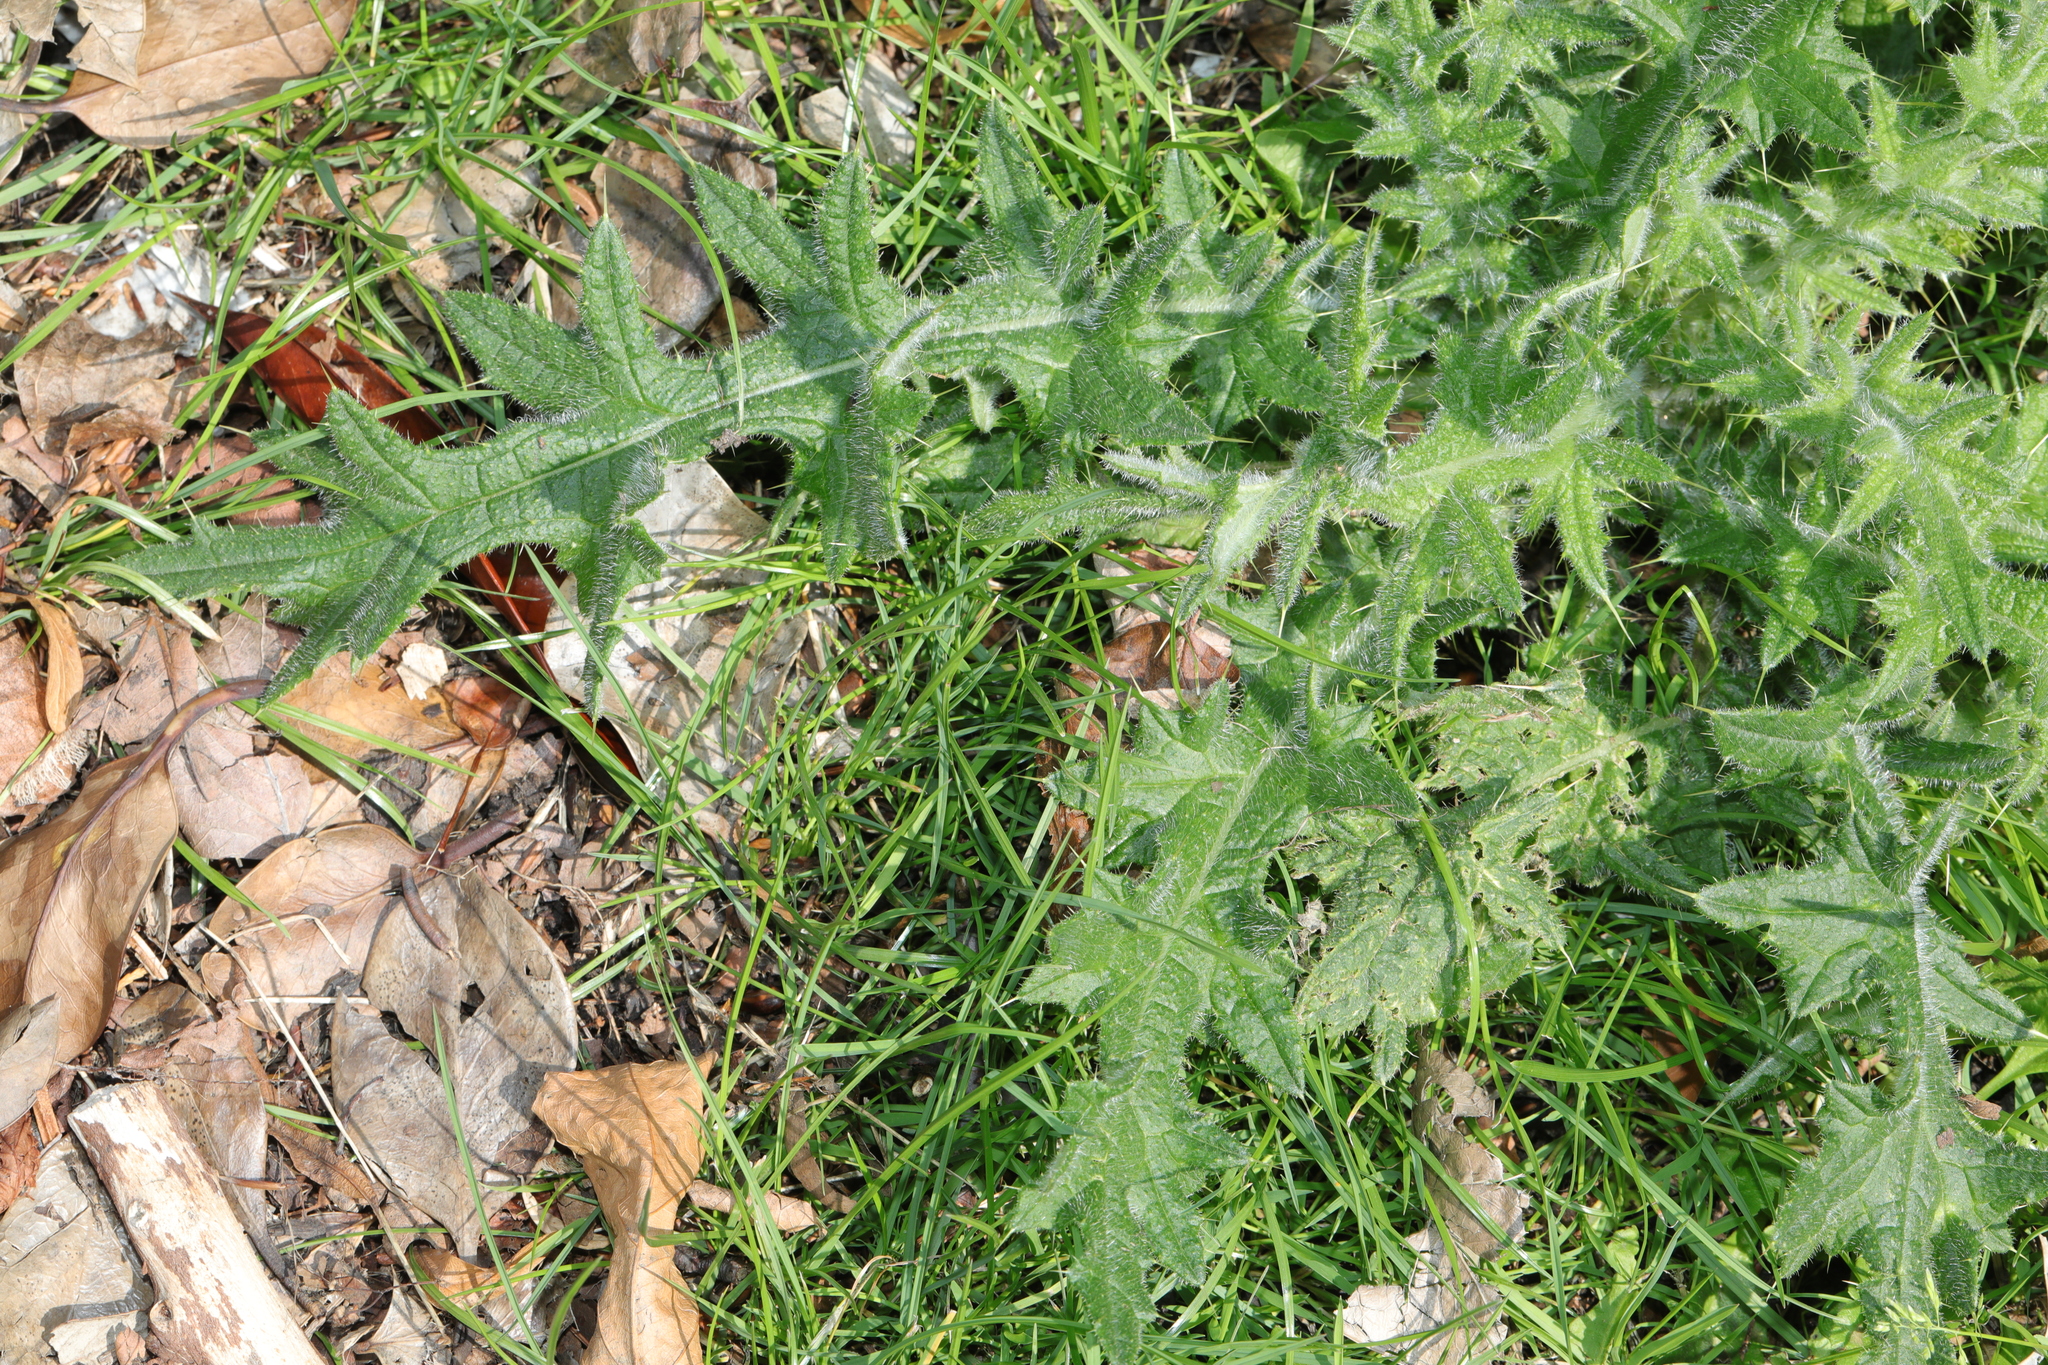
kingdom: Plantae
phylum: Tracheophyta
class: Magnoliopsida
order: Asterales
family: Asteraceae
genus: Cirsium
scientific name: Cirsium vulgare
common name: Bull thistle
